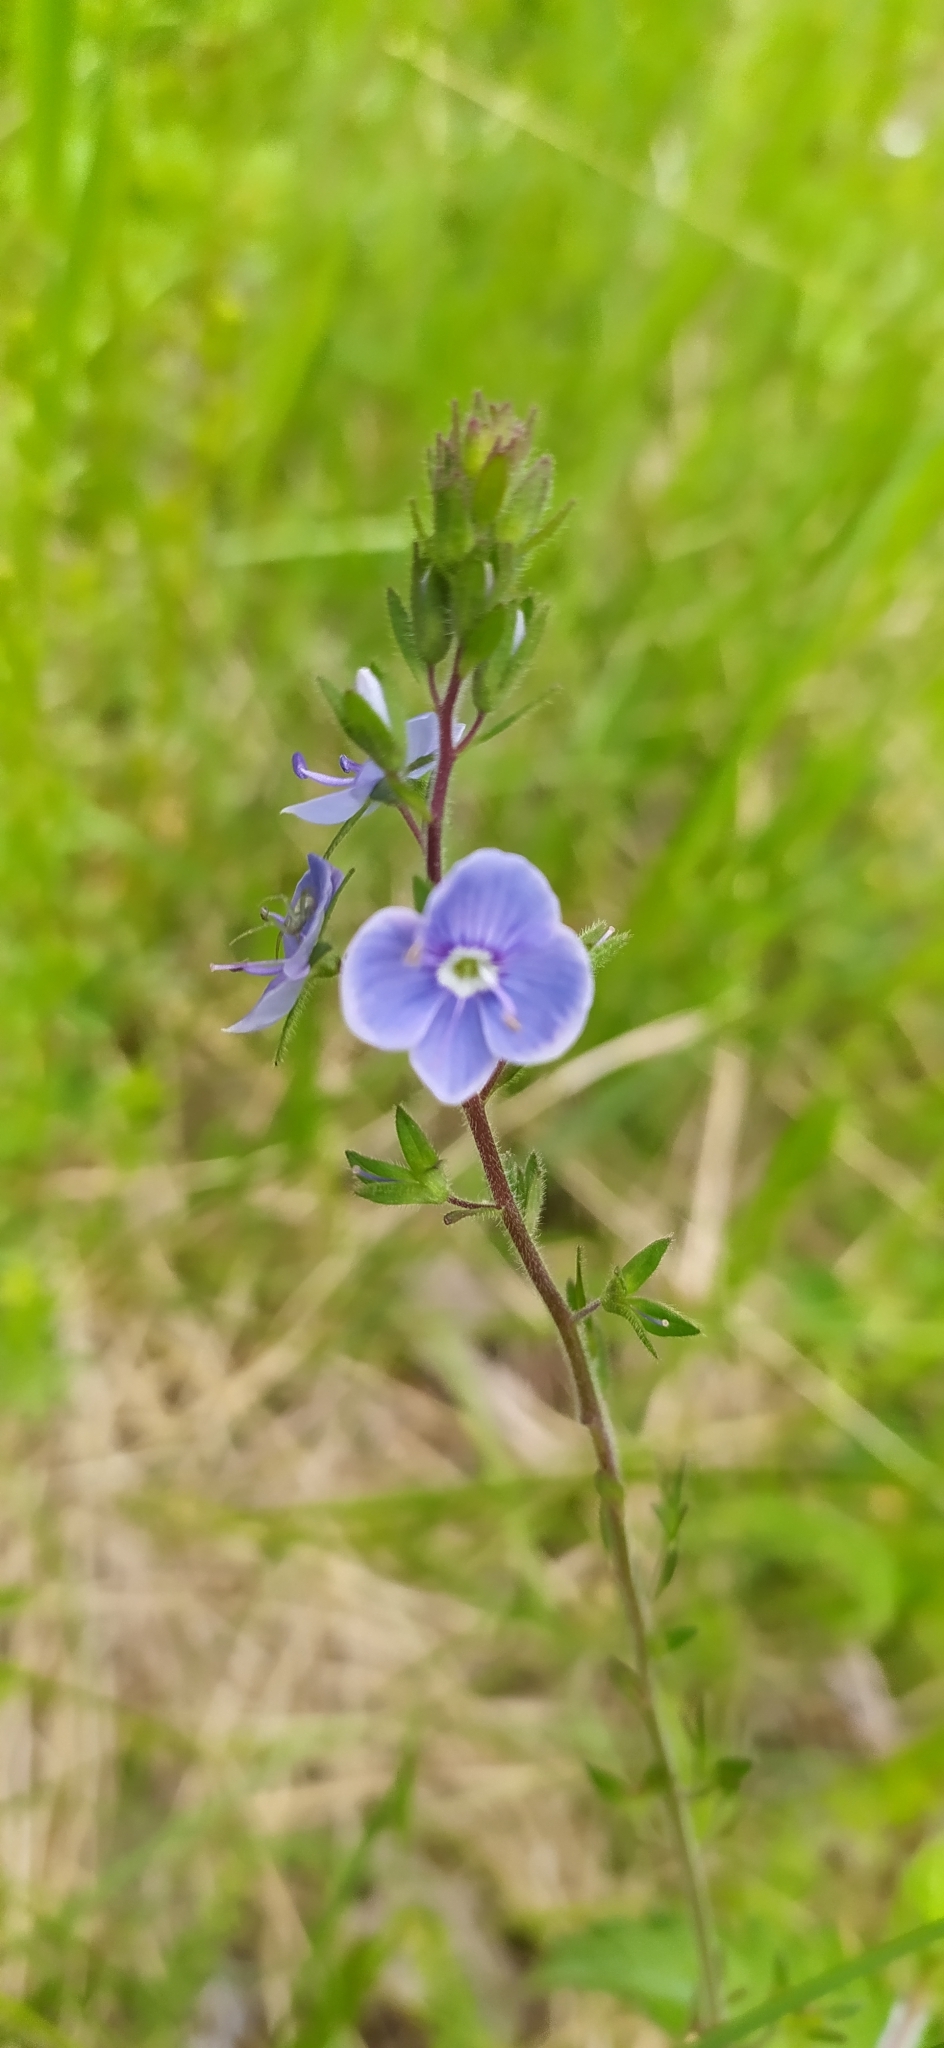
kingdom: Plantae
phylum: Tracheophyta
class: Magnoliopsida
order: Lamiales
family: Plantaginaceae
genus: Veronica
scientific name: Veronica chamaedrys
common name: Germander speedwell
